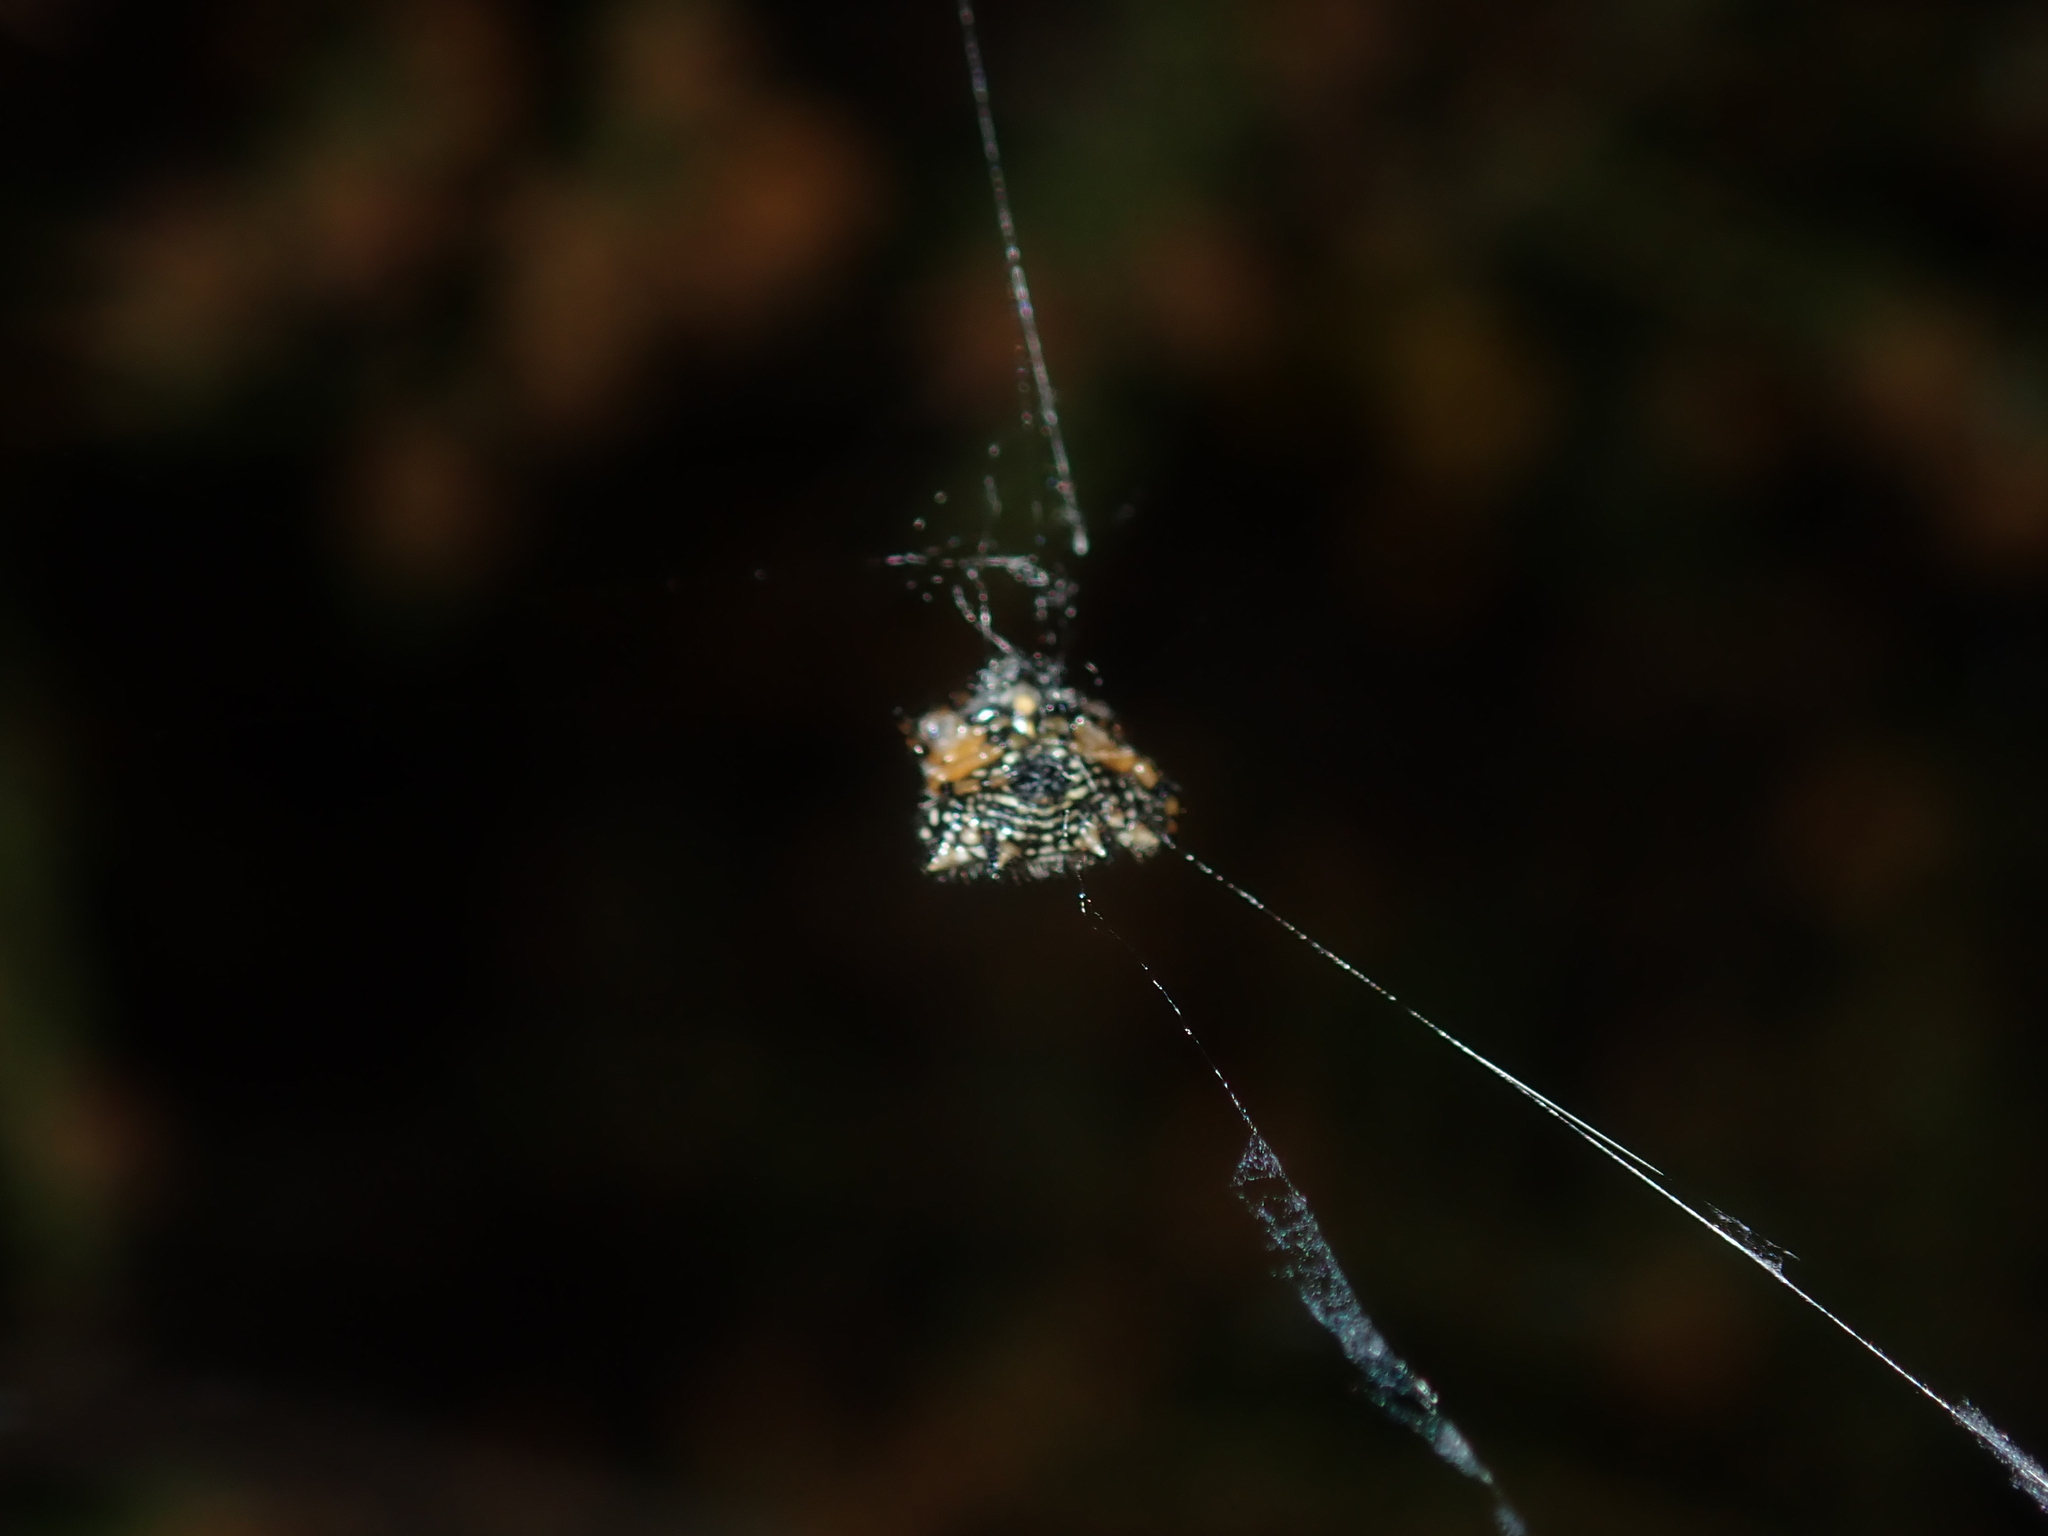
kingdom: Animalia
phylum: Arthropoda
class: Arachnida
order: Araneae
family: Araneidae
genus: Austracantha
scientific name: Austracantha minax
